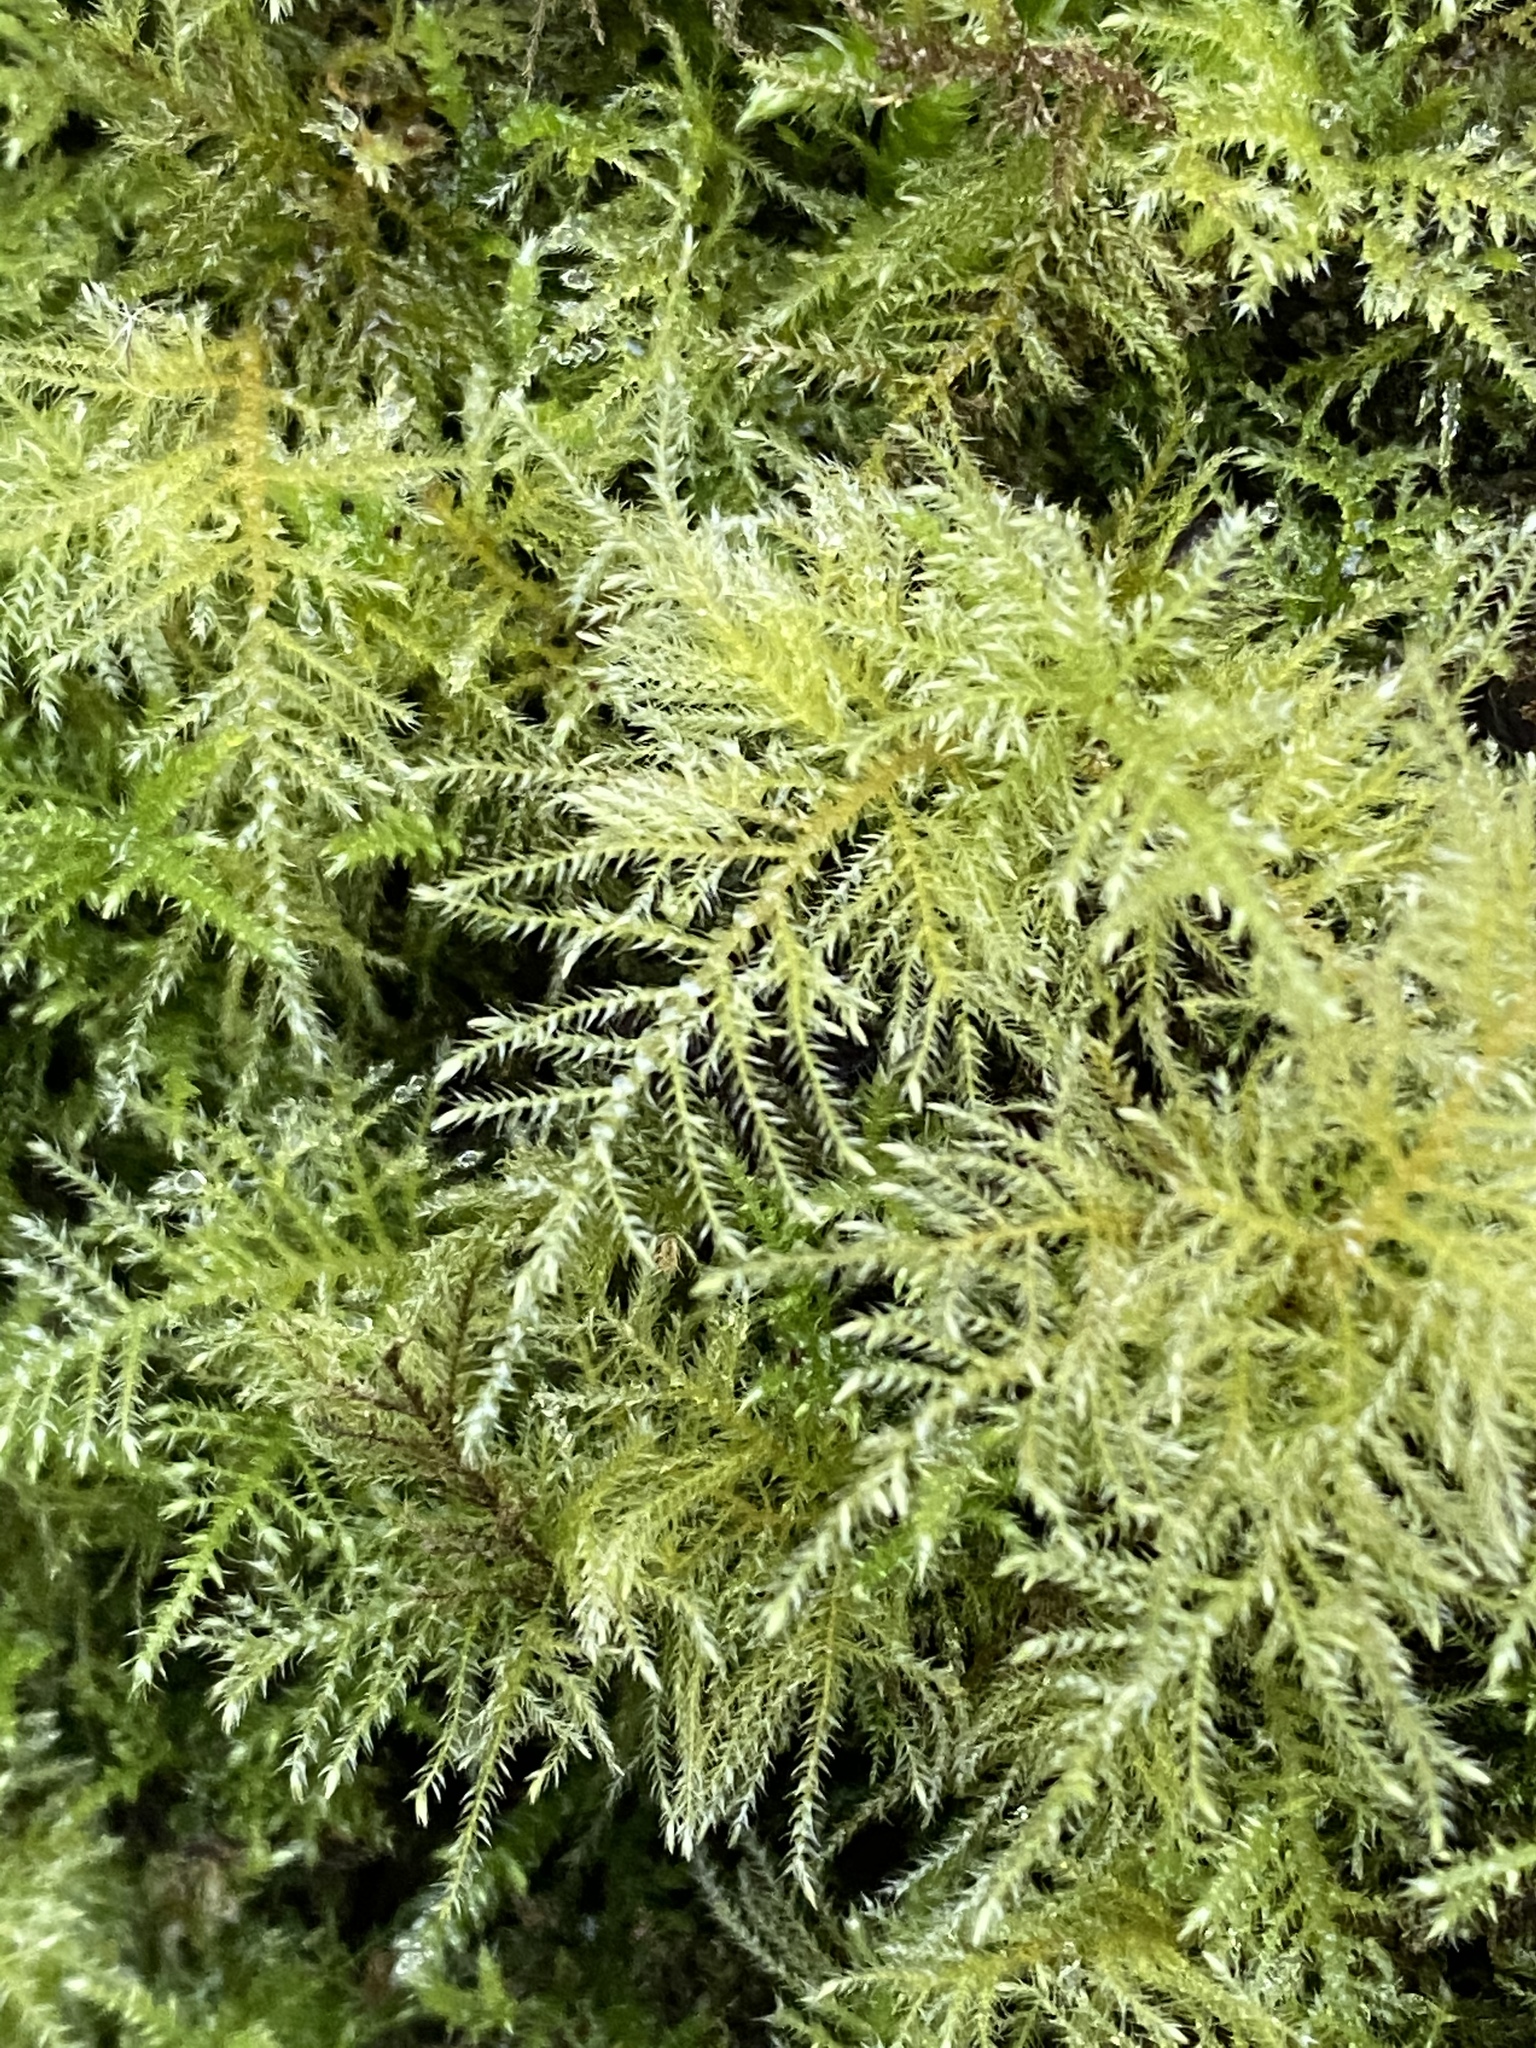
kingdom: Plantae
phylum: Bryophyta
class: Bryopsida
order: Hypnales
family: Brachytheciaceae
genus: Kindbergia
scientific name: Kindbergia praelonga
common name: Slender beaked moss
